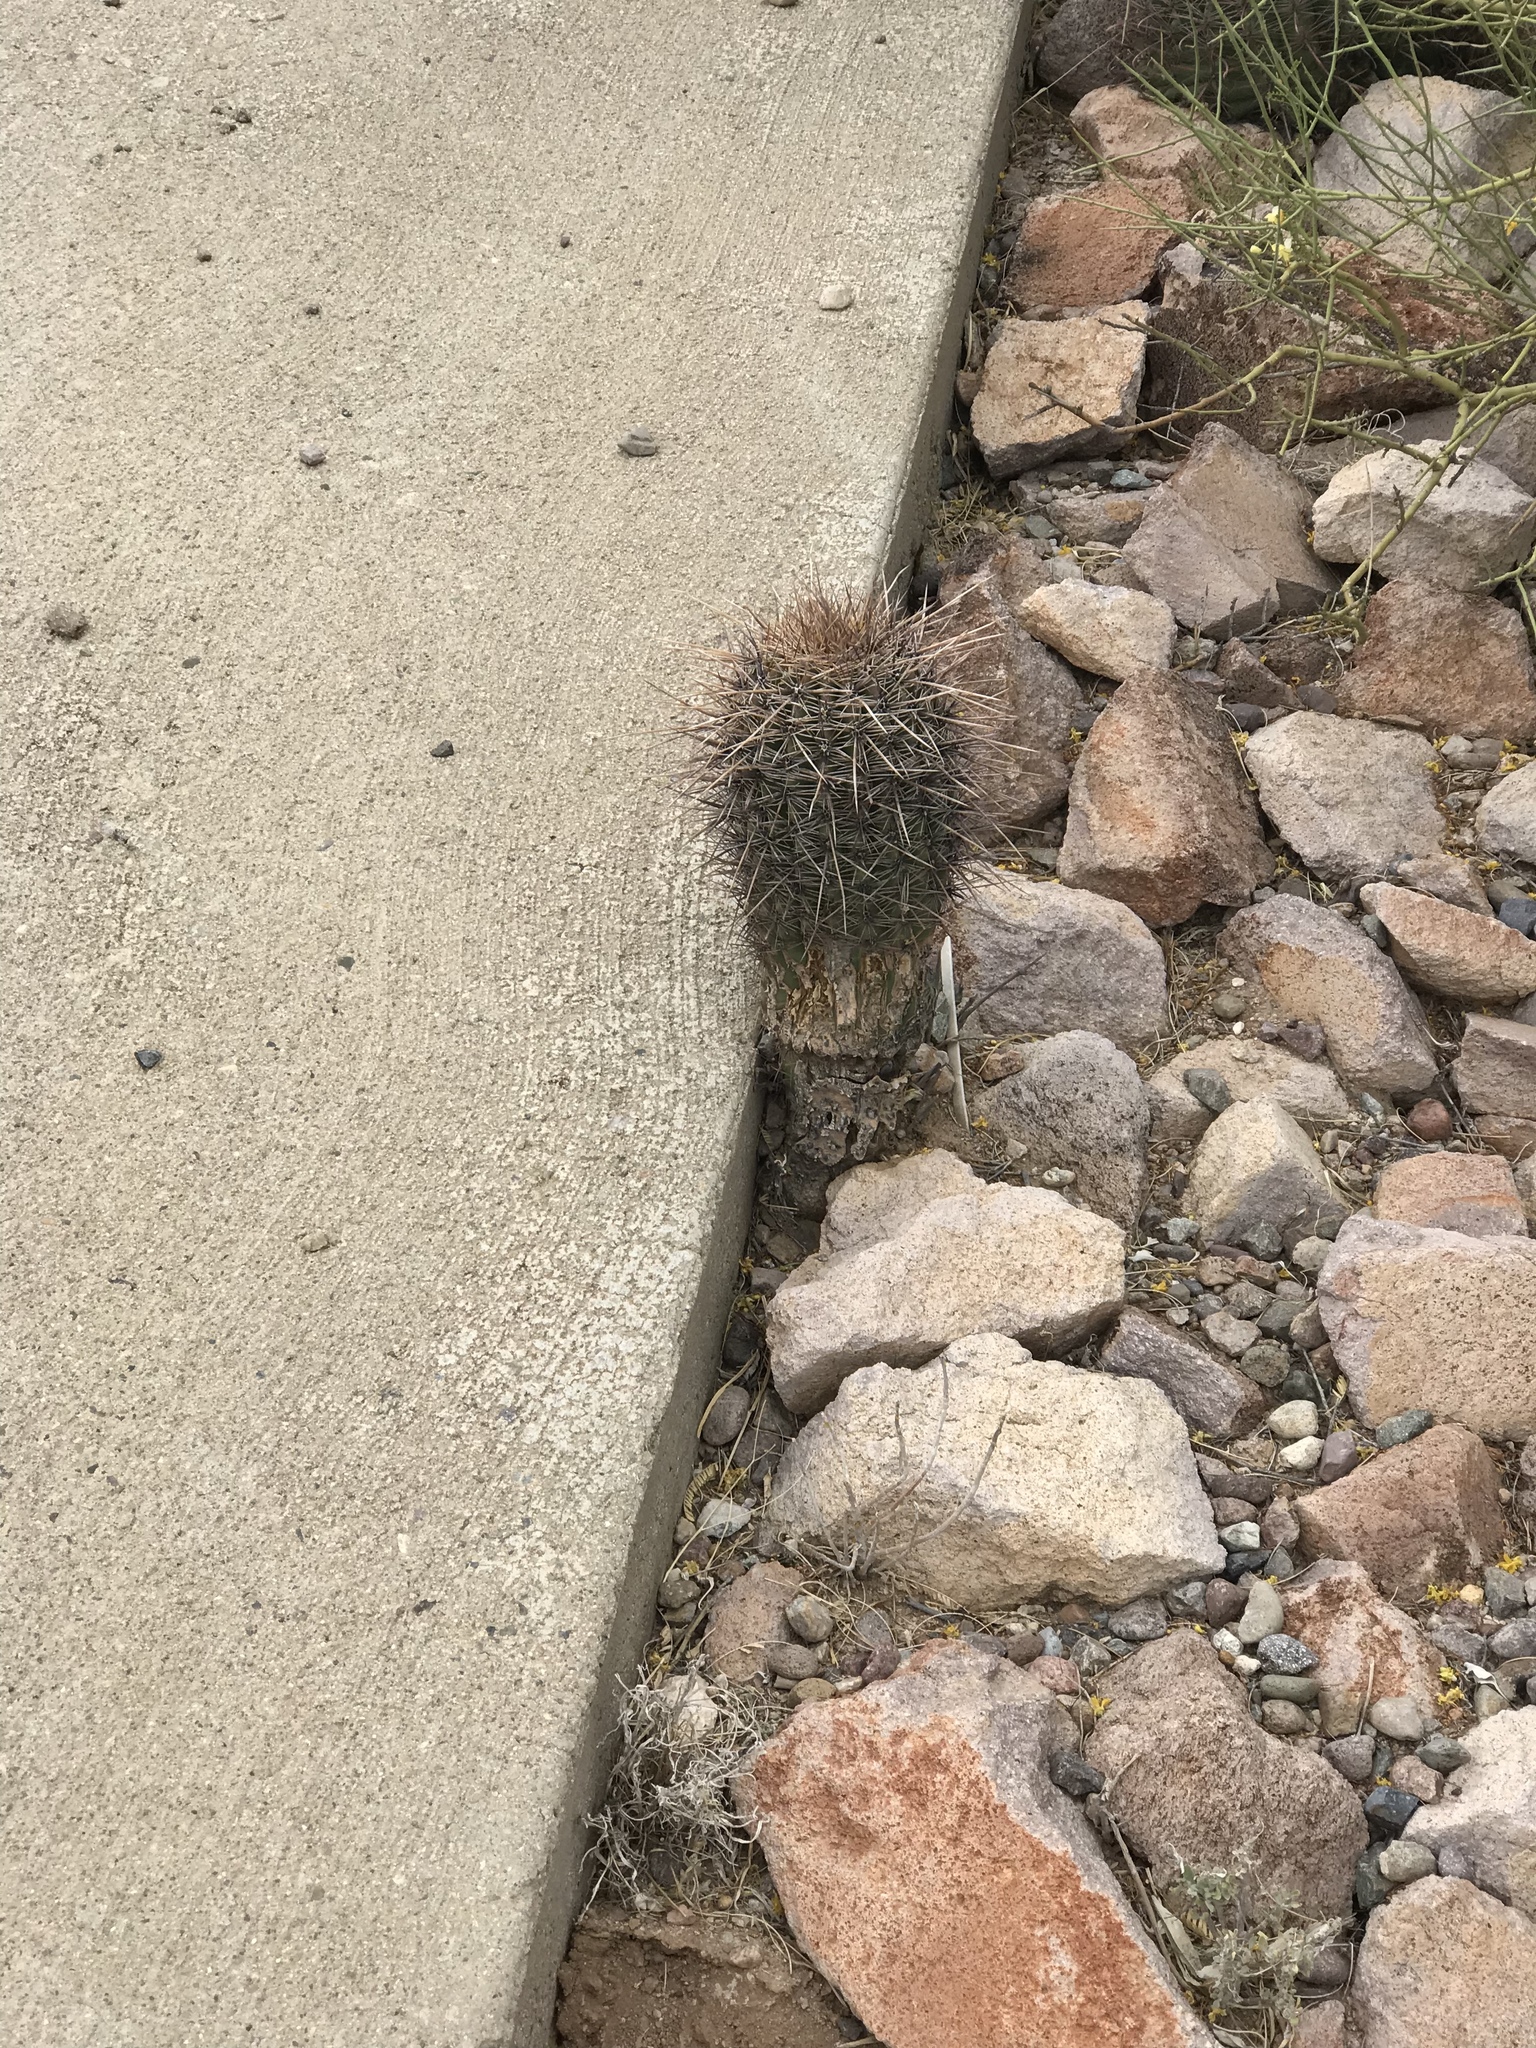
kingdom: Plantae
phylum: Tracheophyta
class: Magnoliopsida
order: Caryophyllales
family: Cactaceae
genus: Carnegiea
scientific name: Carnegiea gigantea
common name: Saguaro
